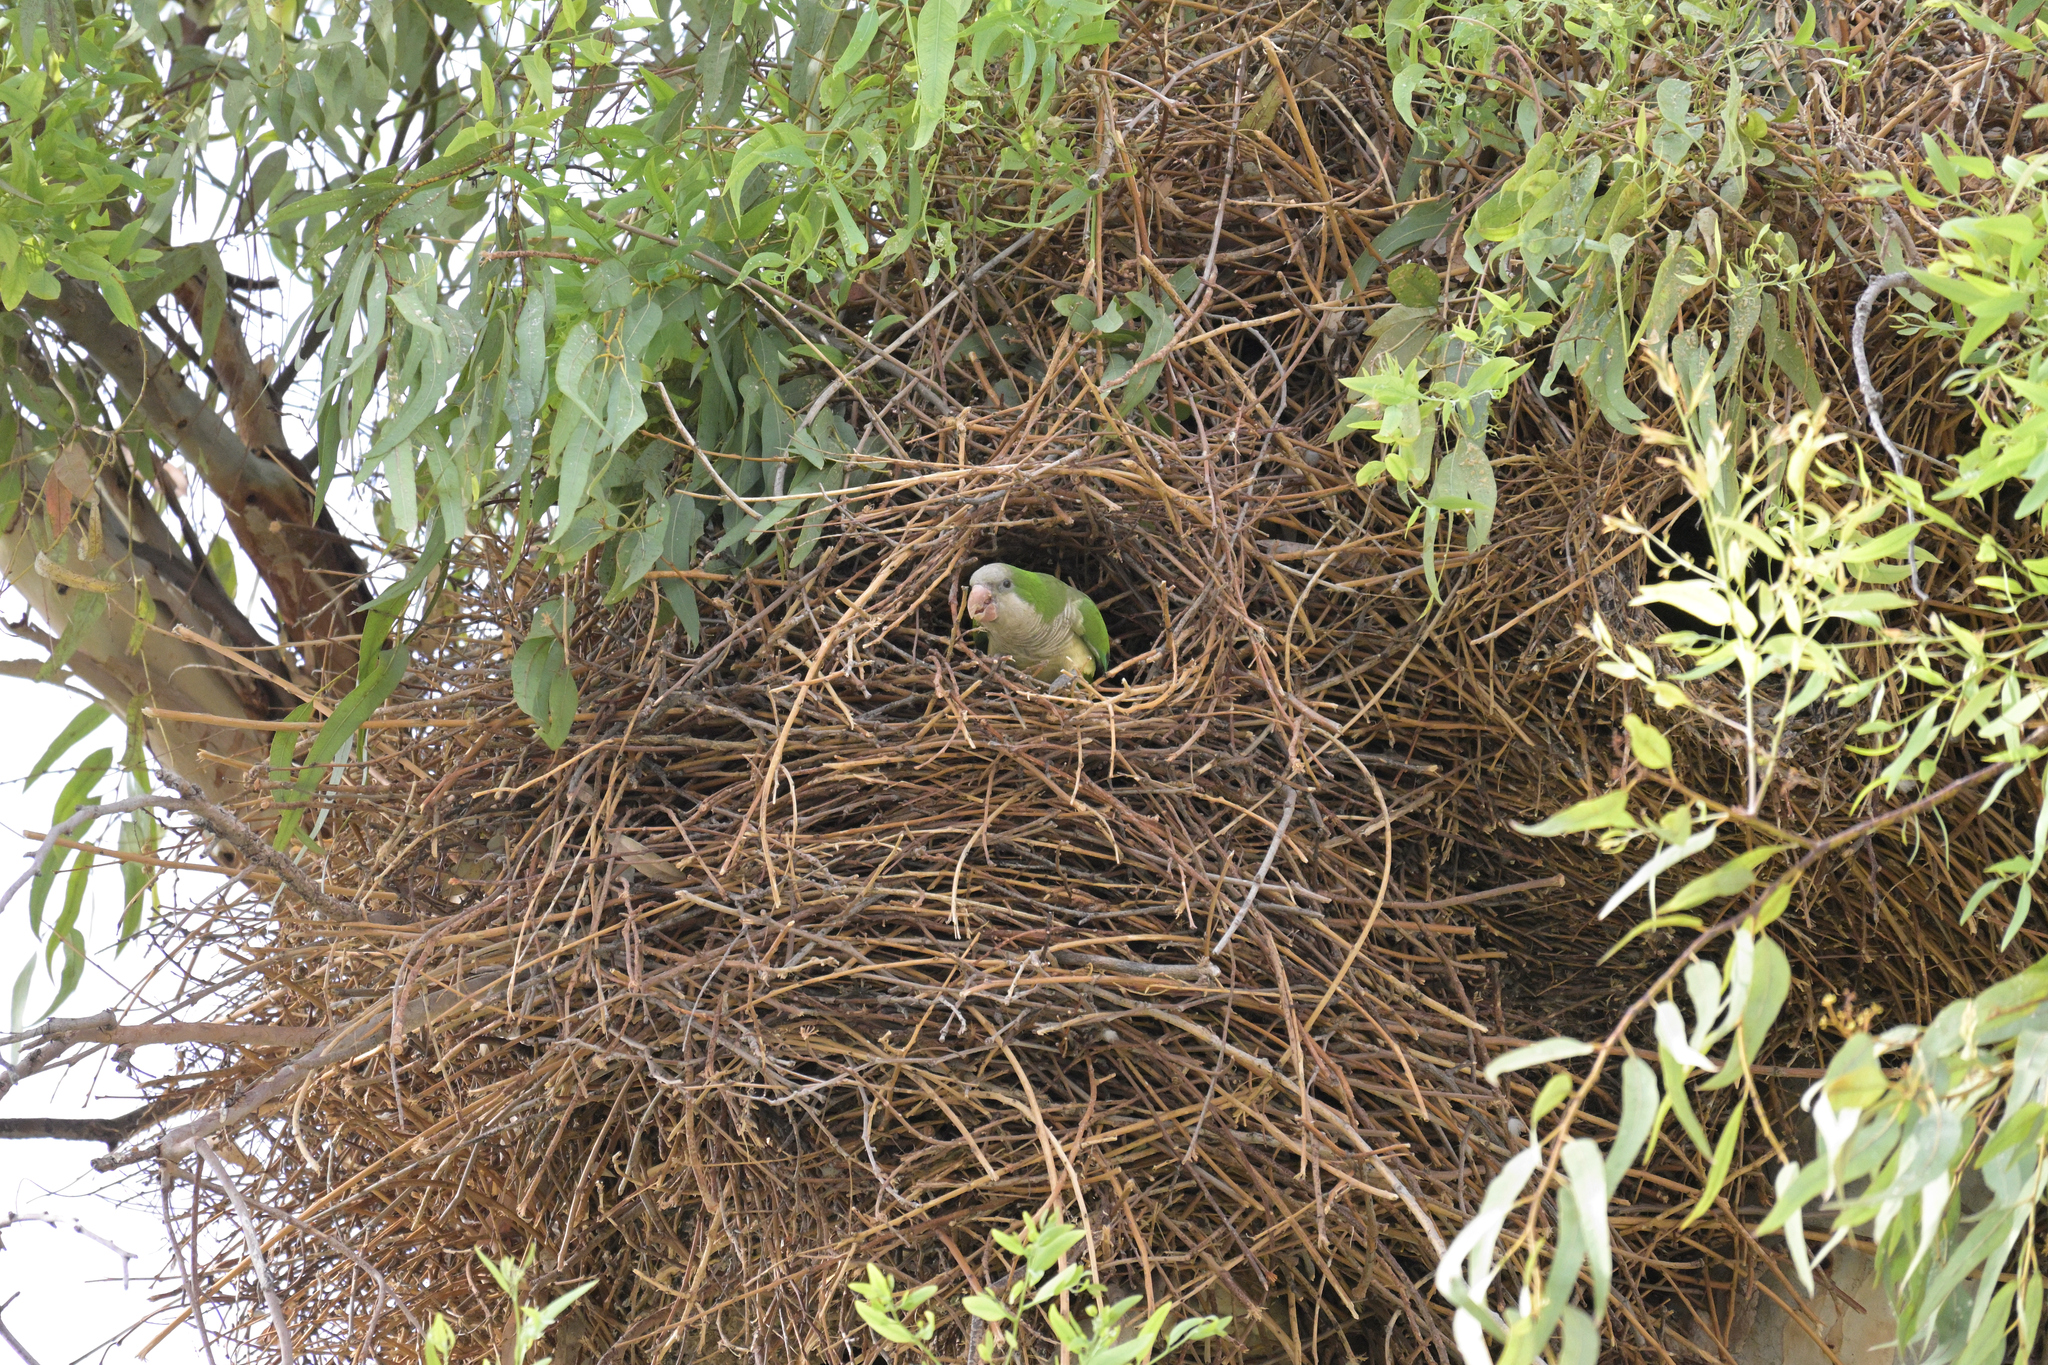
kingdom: Animalia
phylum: Chordata
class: Aves
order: Psittaciformes
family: Psittacidae
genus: Myiopsitta
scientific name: Myiopsitta monachus
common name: Monk parakeet
